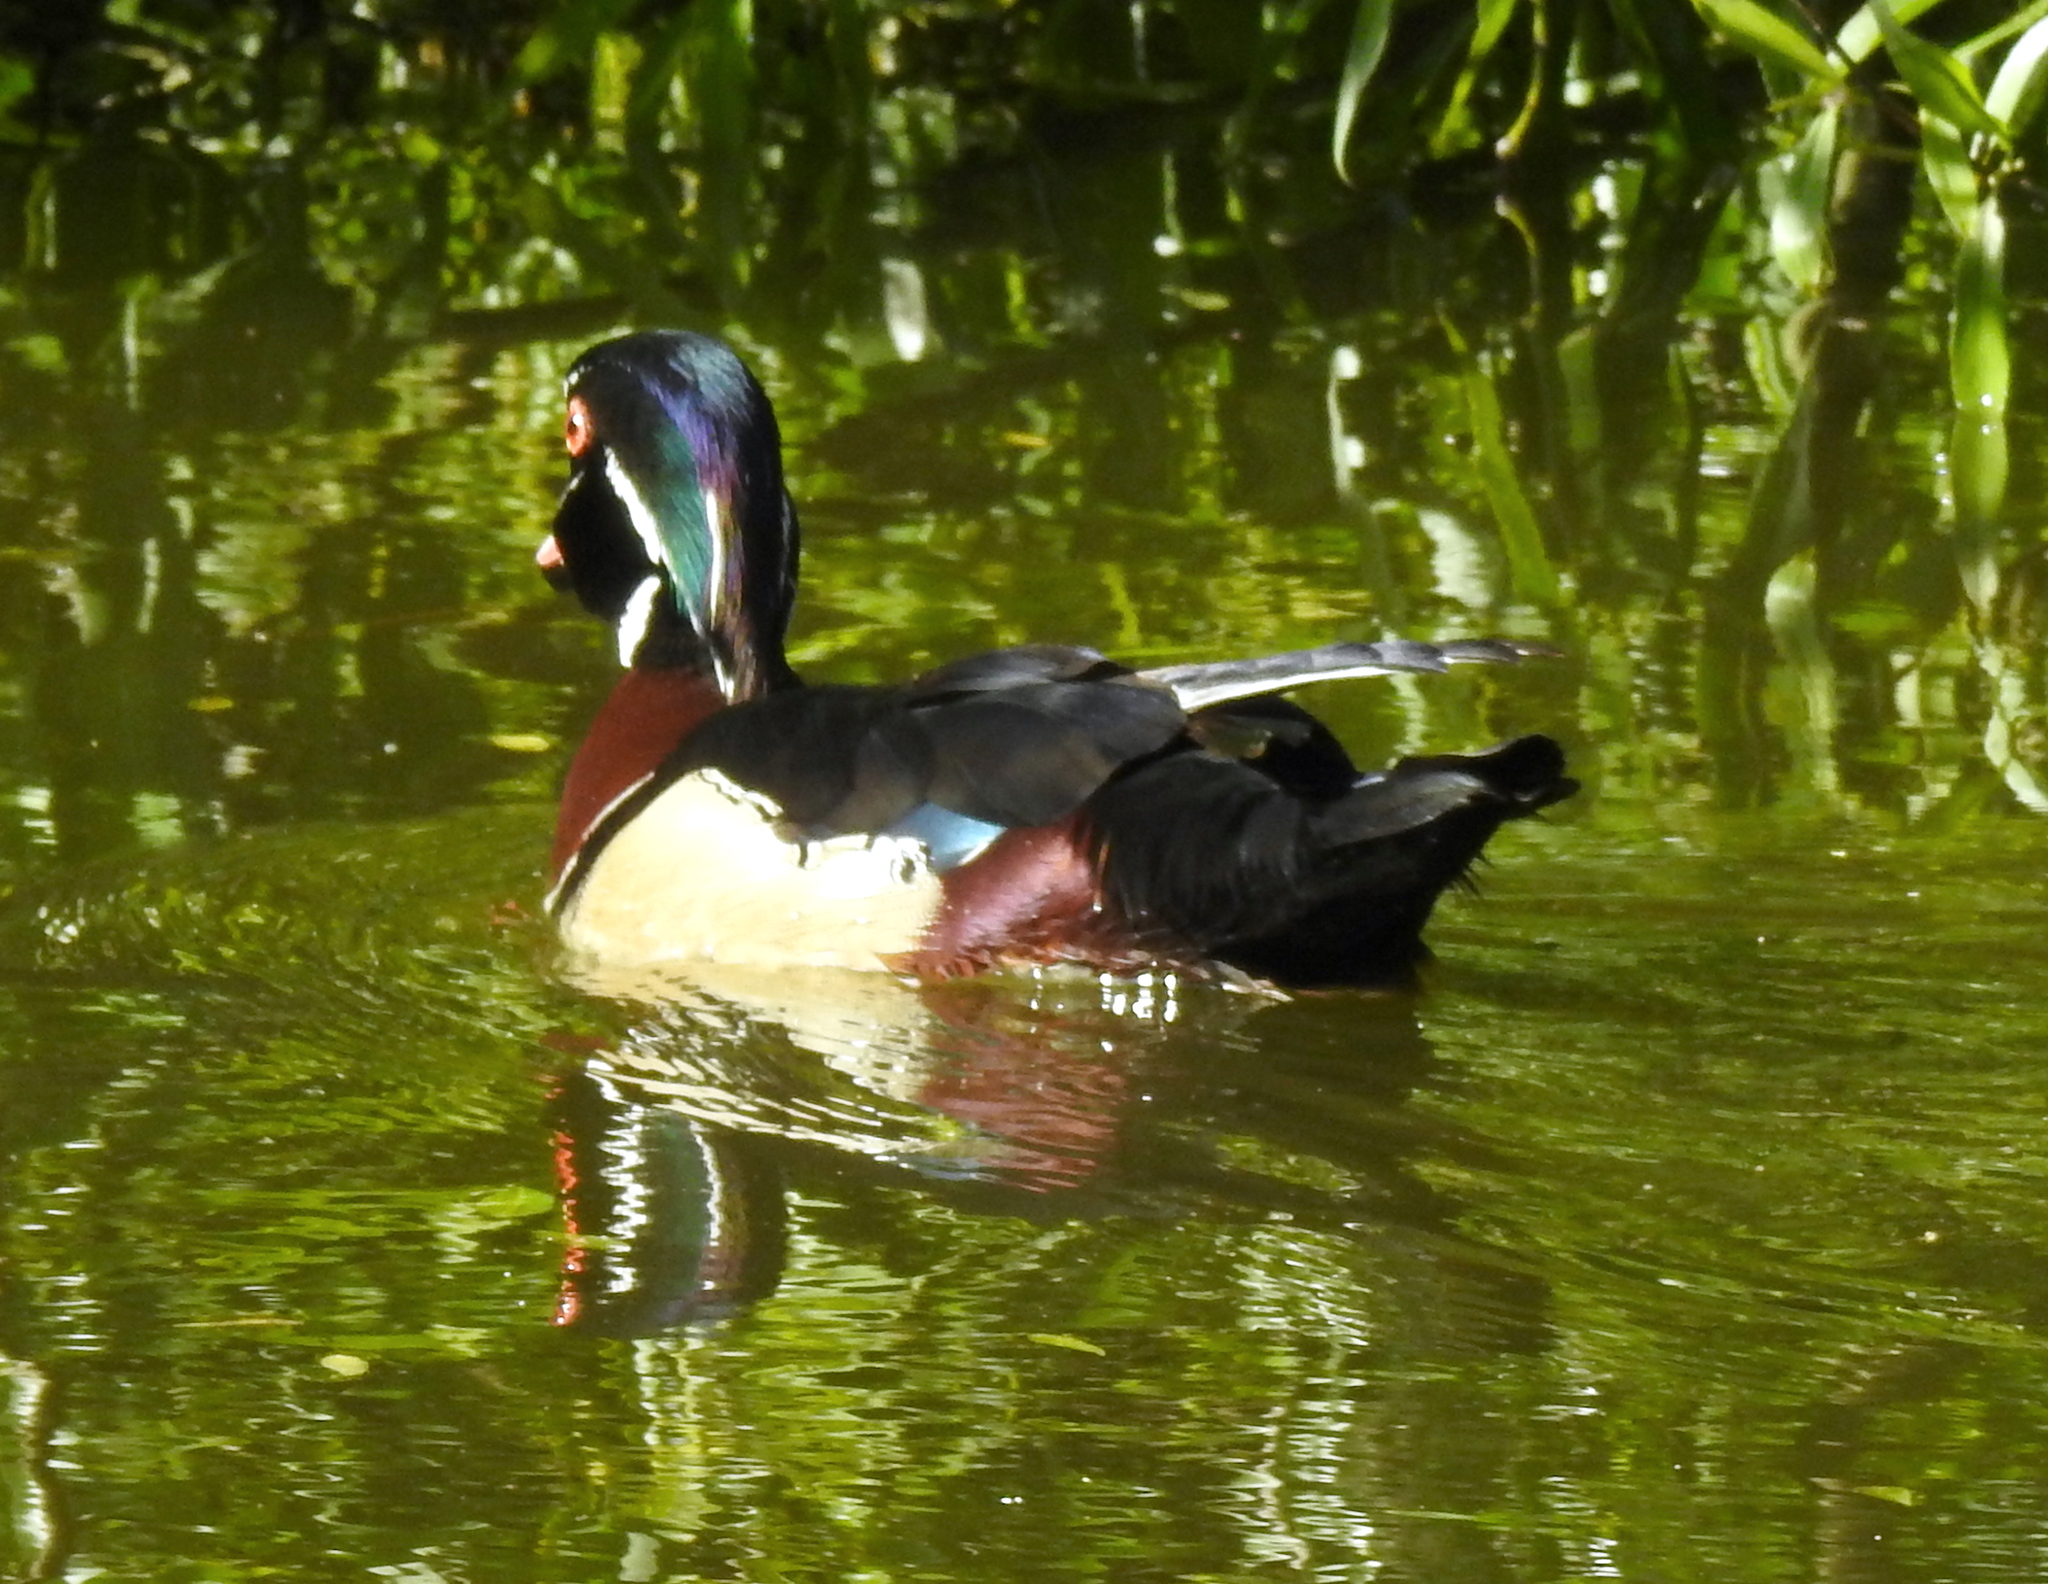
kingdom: Animalia
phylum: Chordata
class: Aves
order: Anseriformes
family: Anatidae
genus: Aix
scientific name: Aix sponsa
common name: Wood duck
